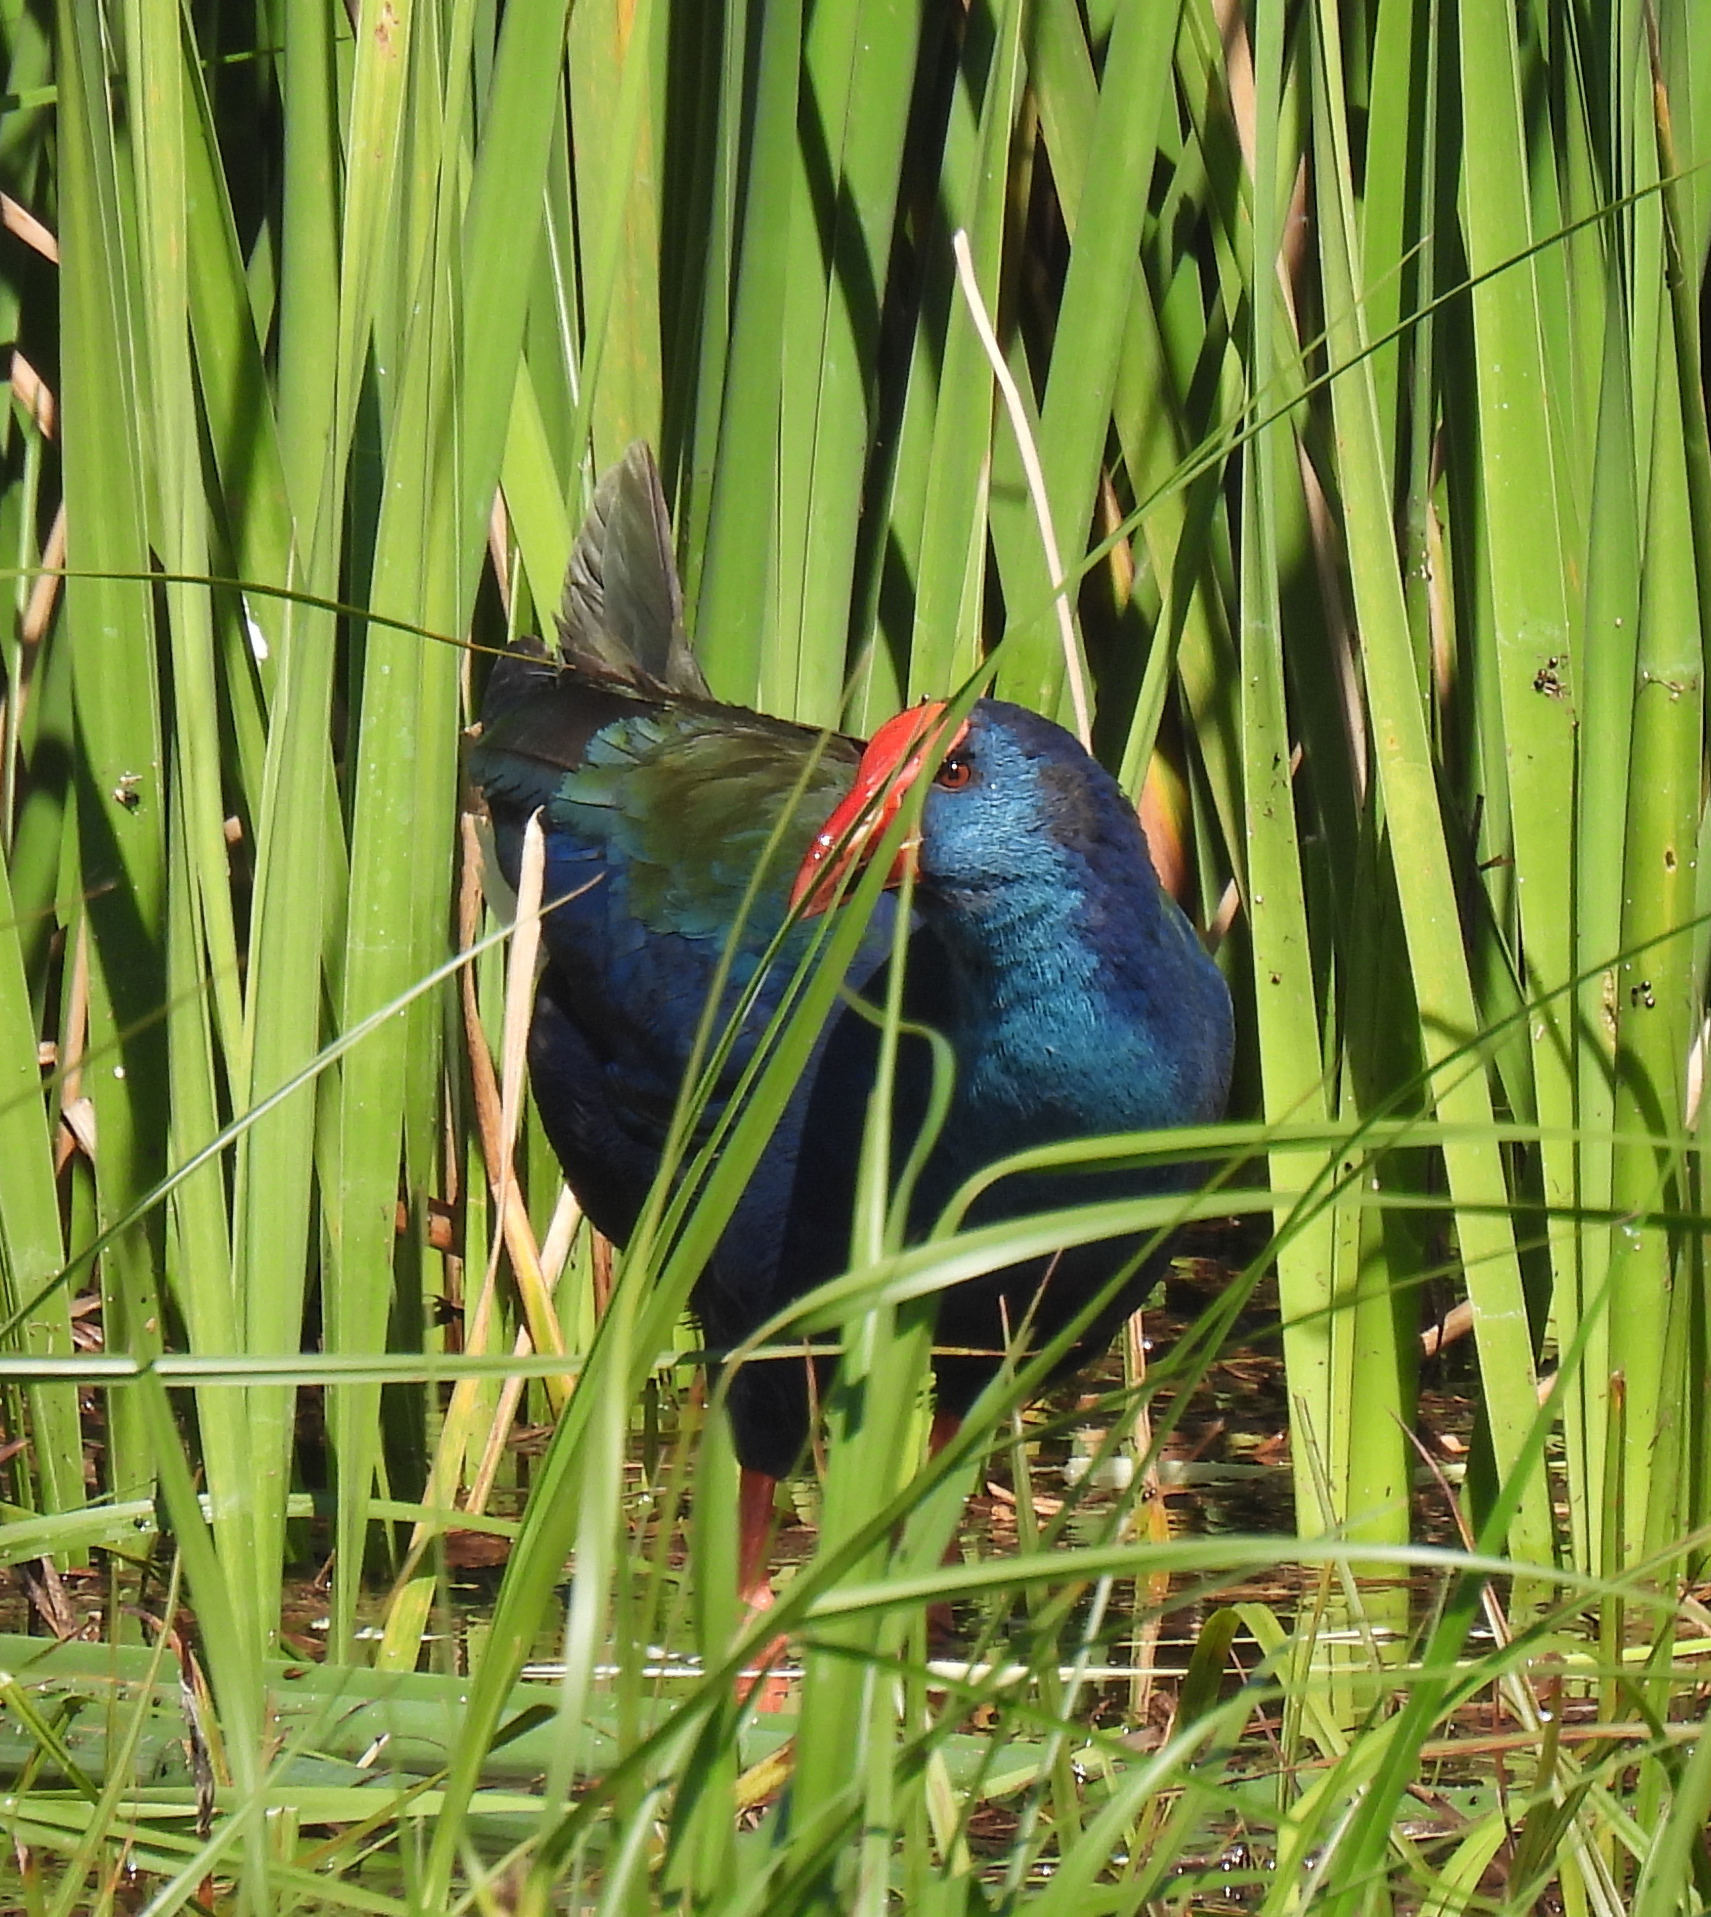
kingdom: Animalia
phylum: Chordata
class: Aves
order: Gruiformes
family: Rallidae
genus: Porphyrio
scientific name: Porphyrio porphyrio
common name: Purple swamphen
